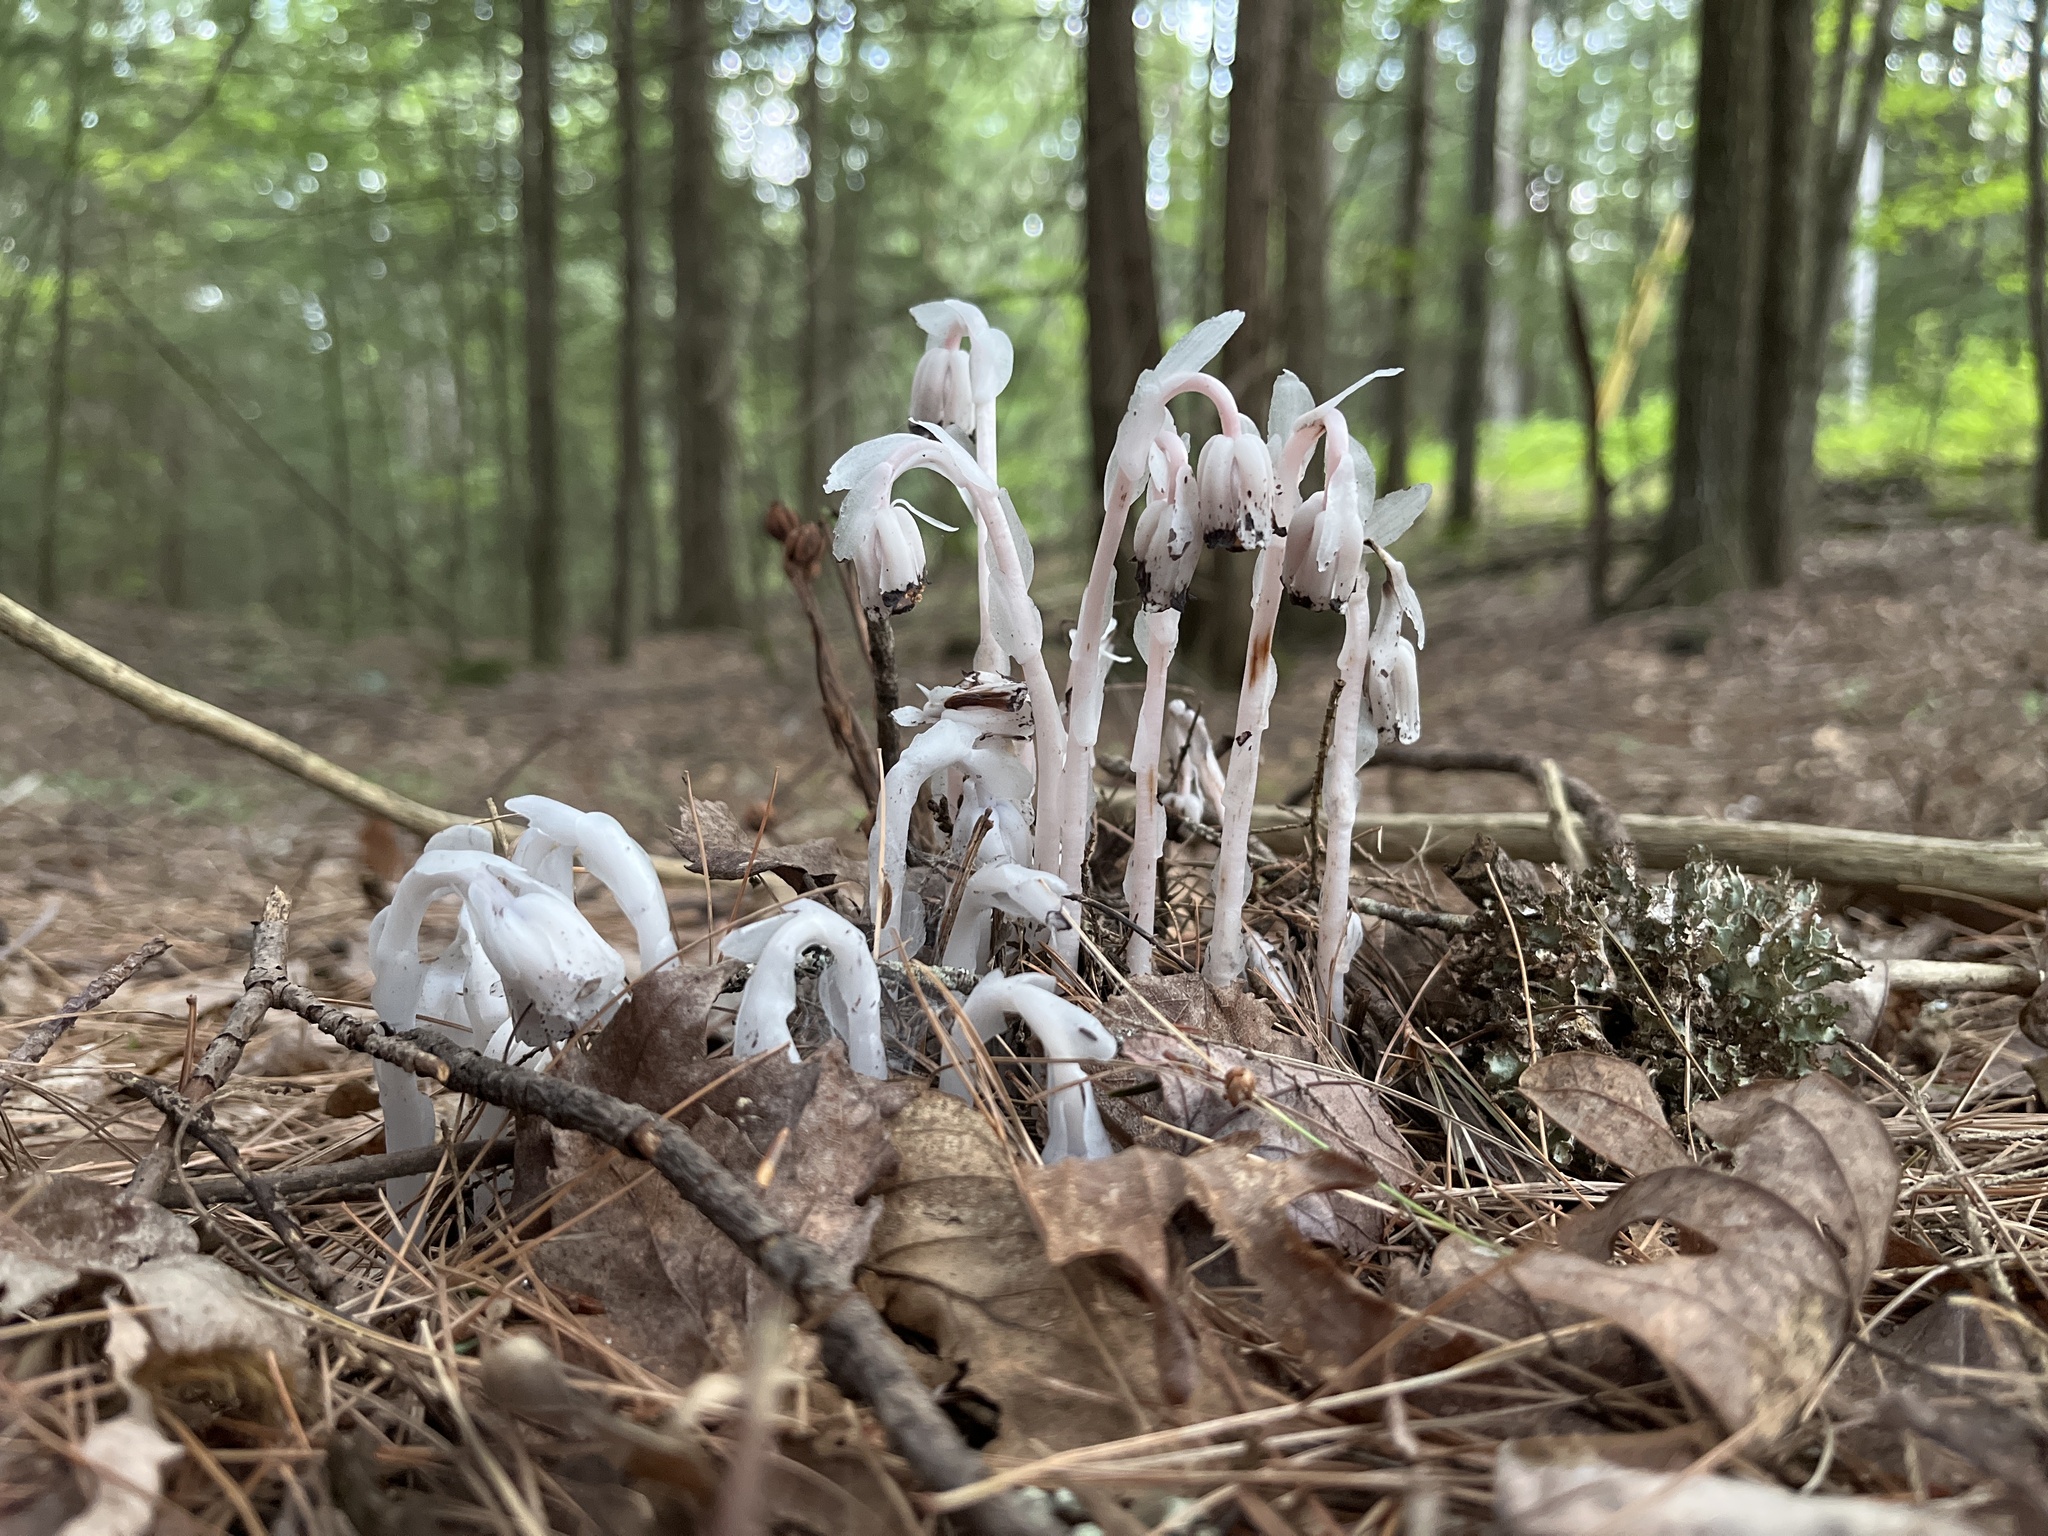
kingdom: Plantae
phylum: Tracheophyta
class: Magnoliopsida
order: Ericales
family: Ericaceae
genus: Monotropa
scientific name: Monotropa uniflora
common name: Convulsion root
